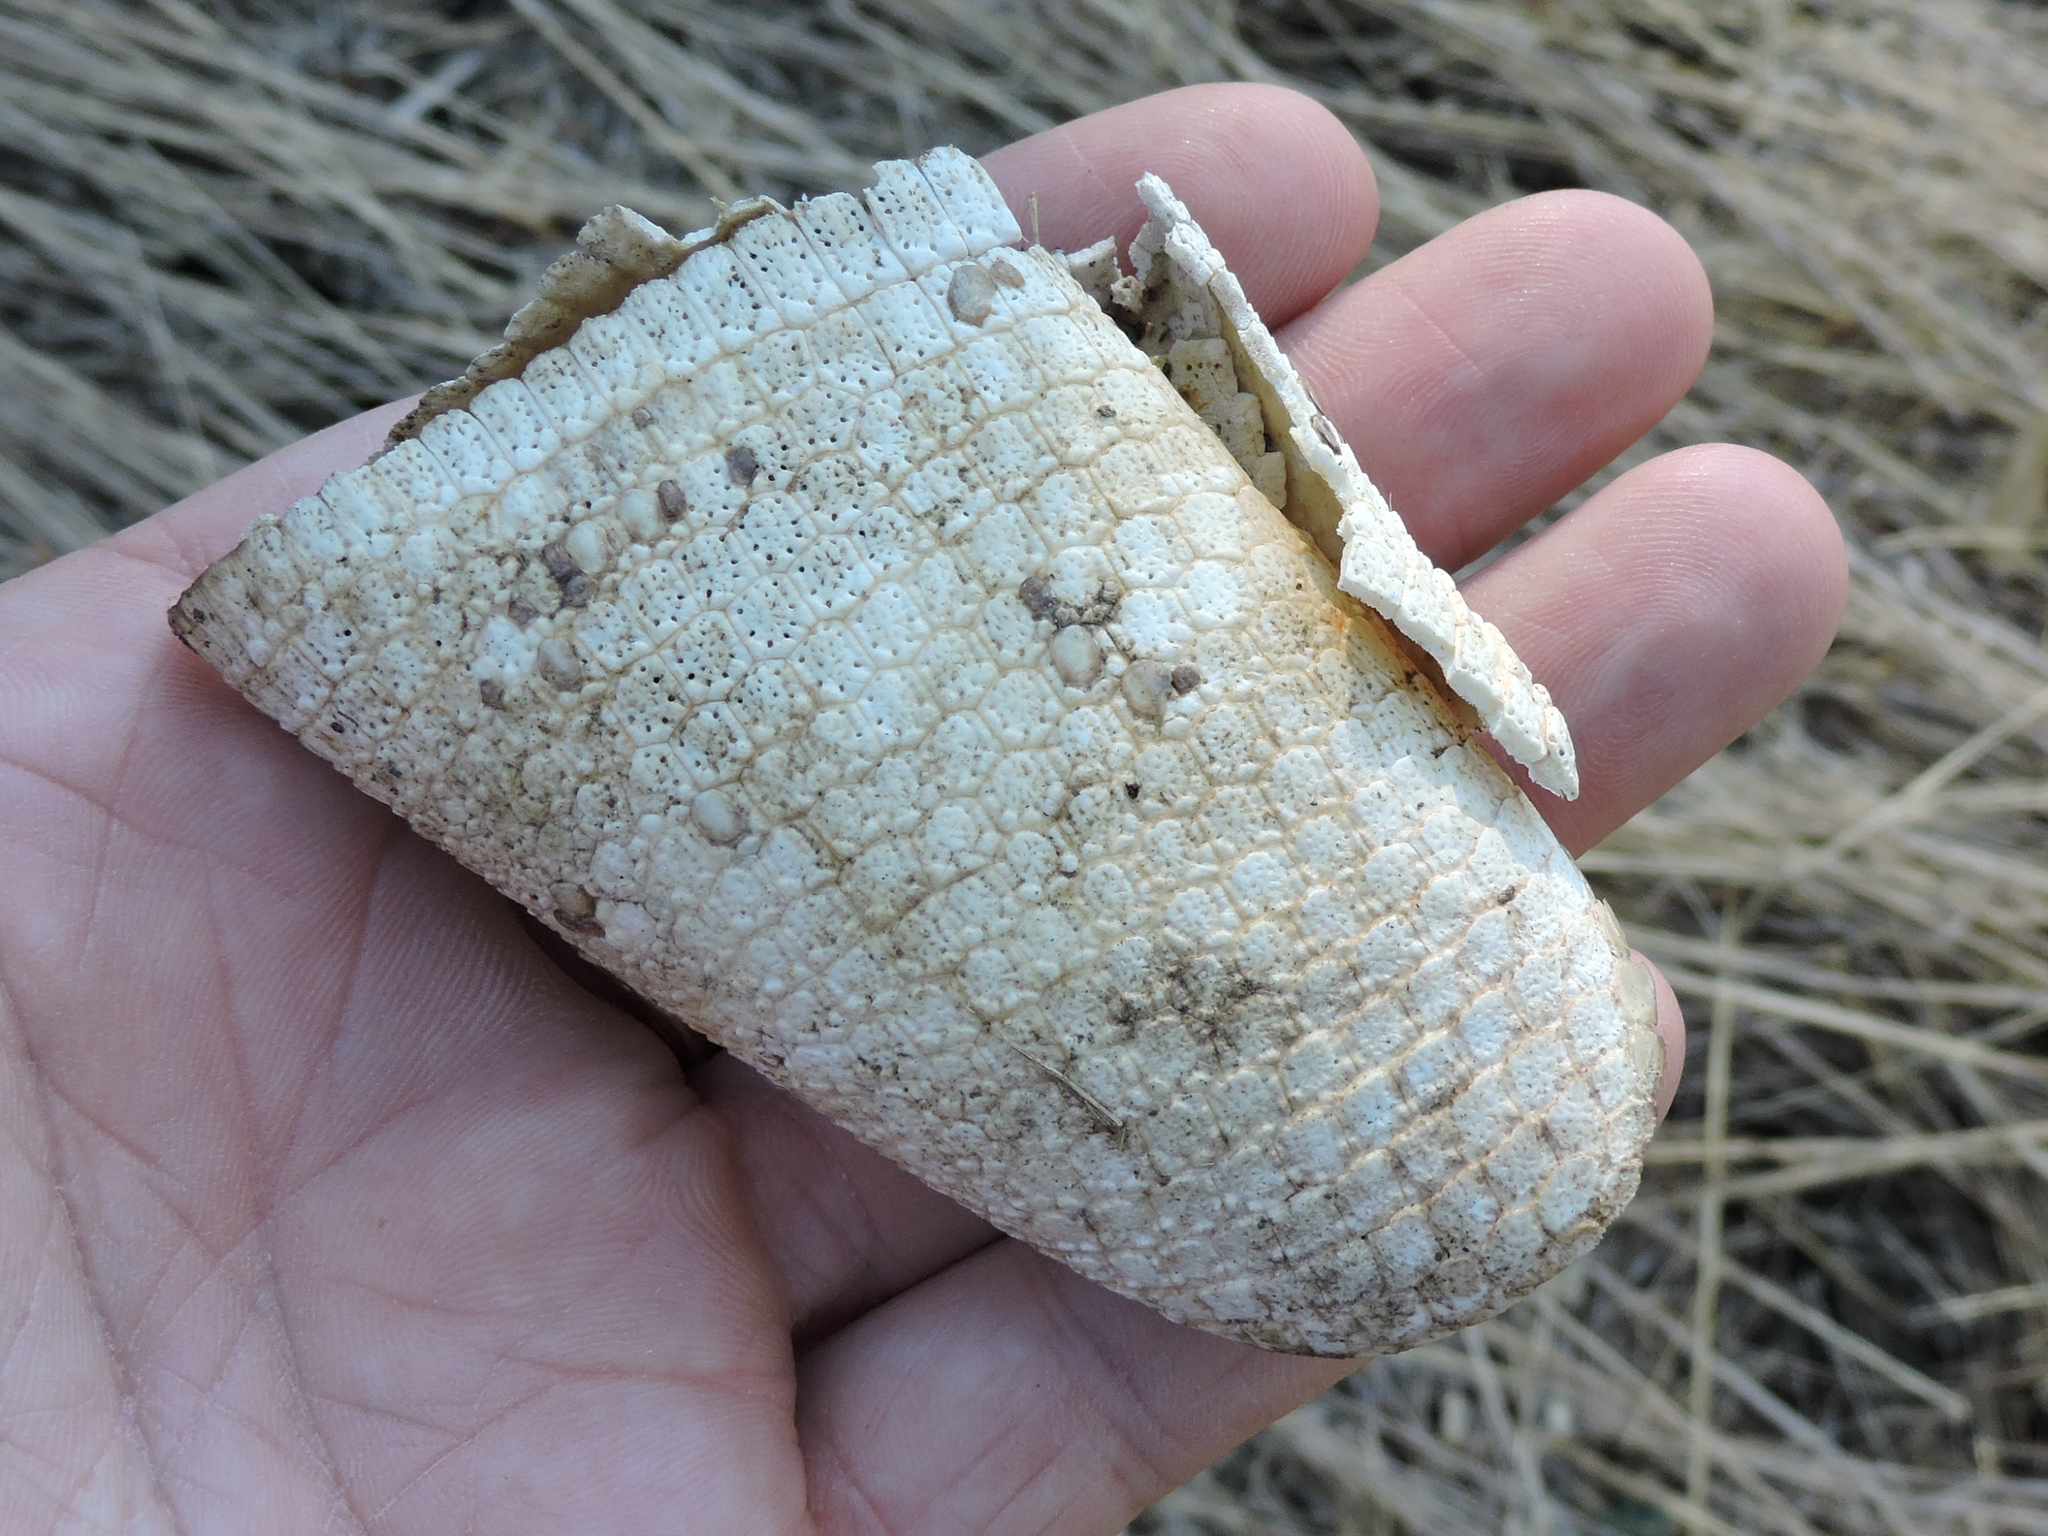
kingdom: Animalia
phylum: Chordata
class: Mammalia
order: Cingulata
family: Dasypodidae
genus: Dasypus
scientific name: Dasypus novemcinctus
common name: Nine-banded armadillo
